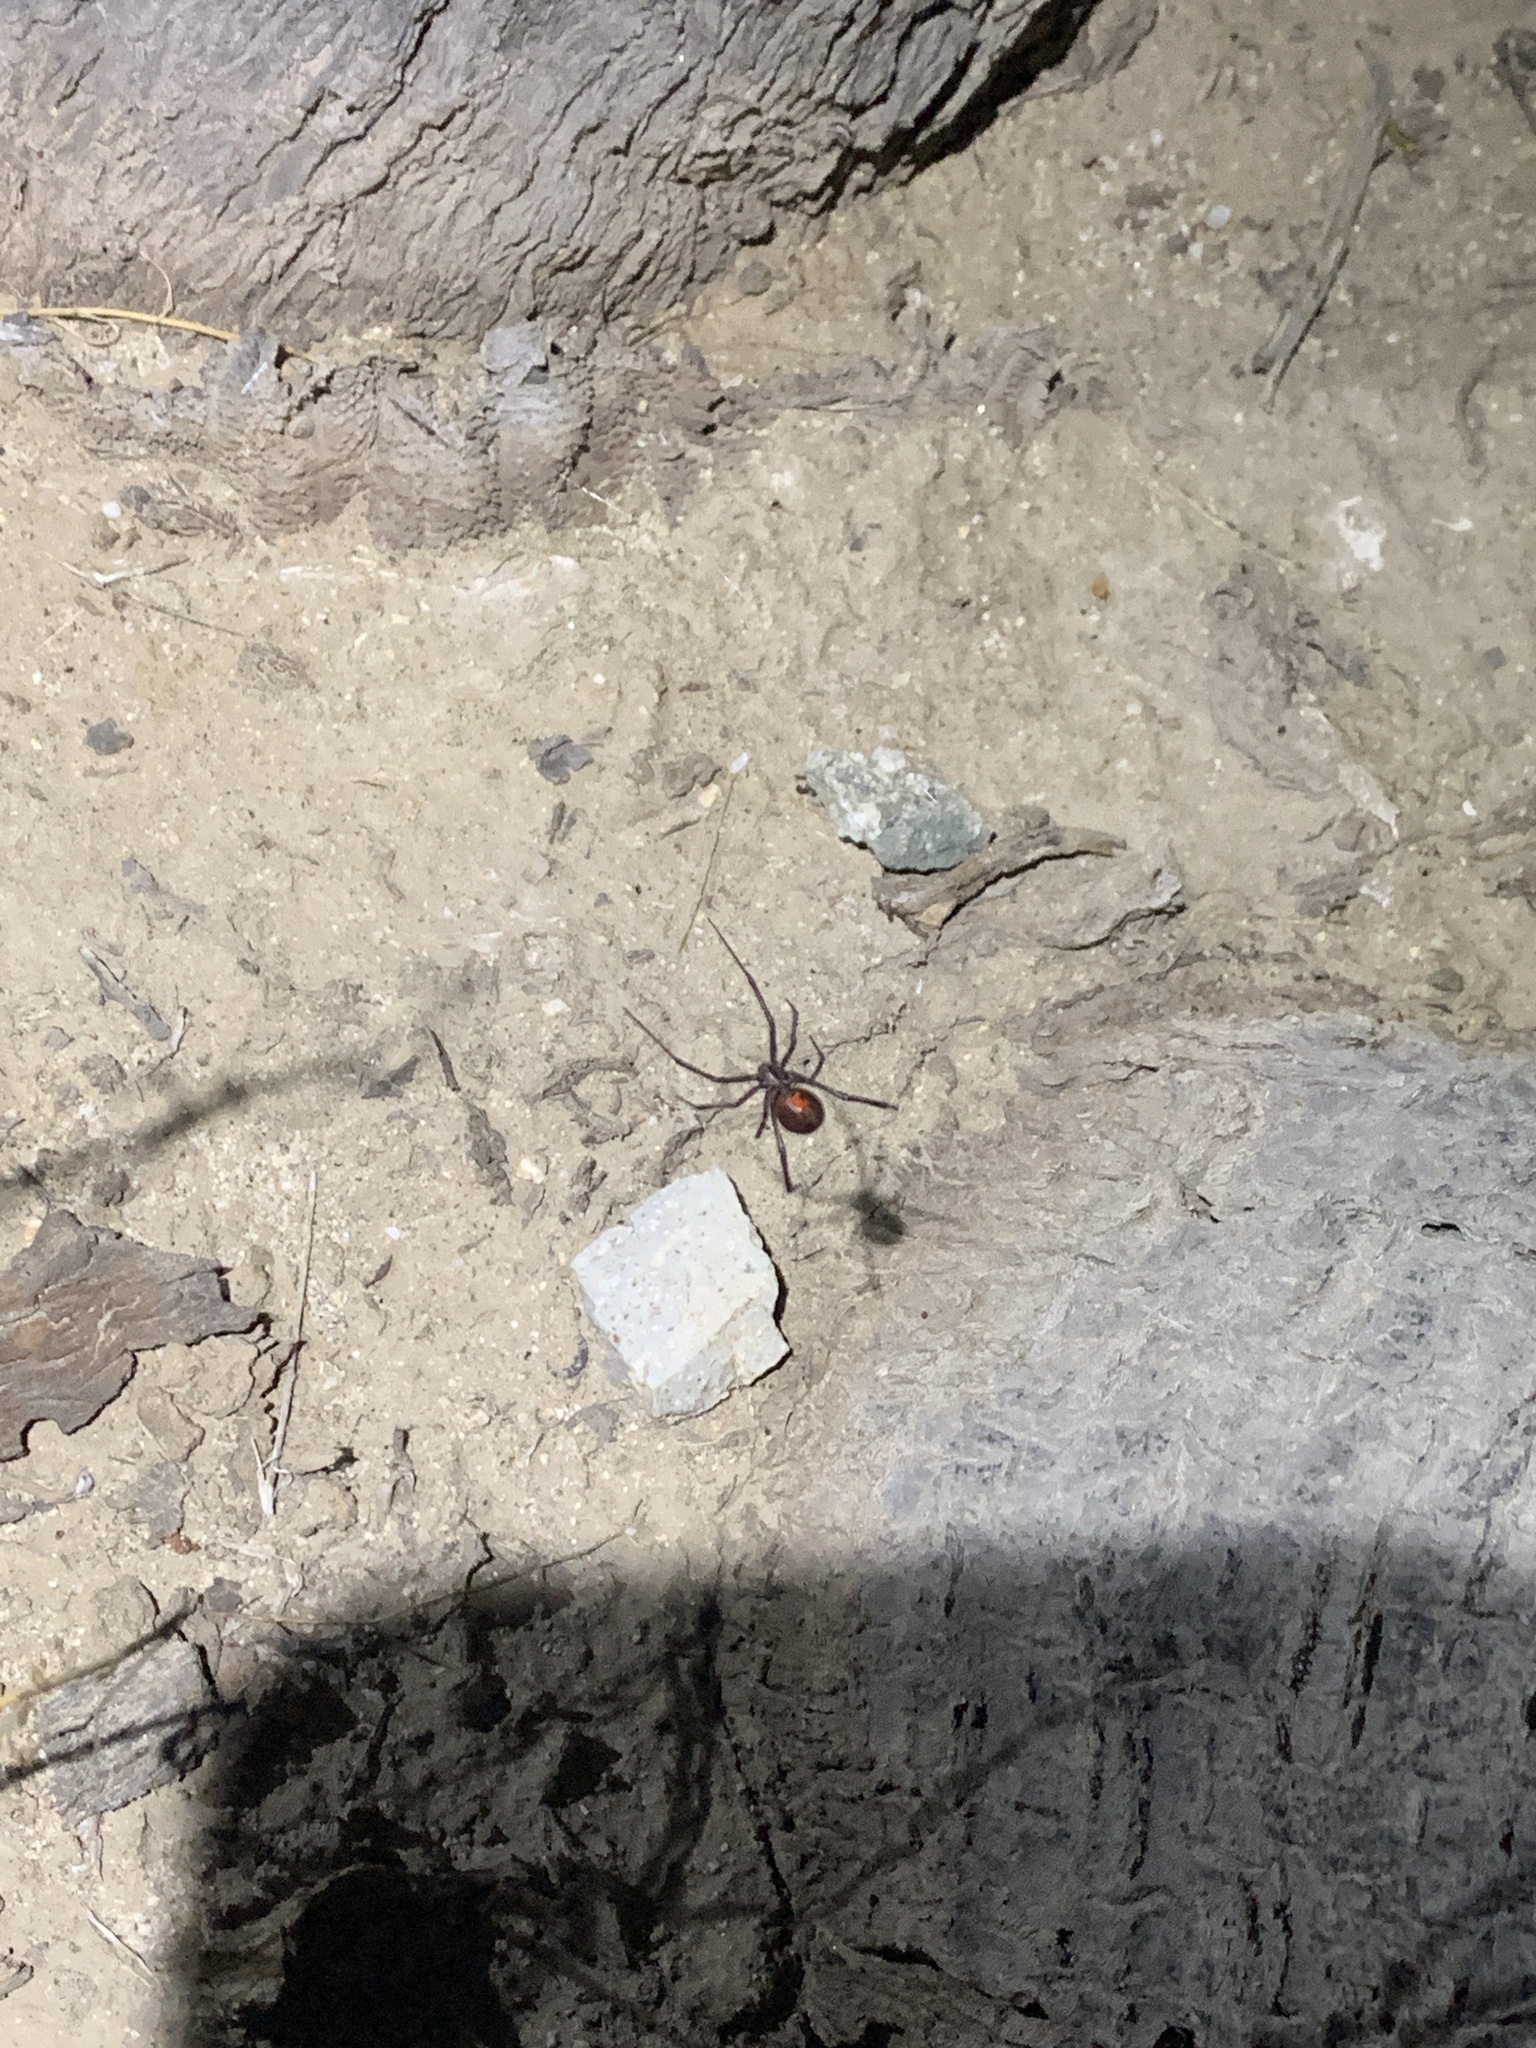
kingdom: Animalia
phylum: Arthropoda
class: Arachnida
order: Araneae
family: Theridiidae
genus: Latrodectus
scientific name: Latrodectus hesperus
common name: Western black widow
